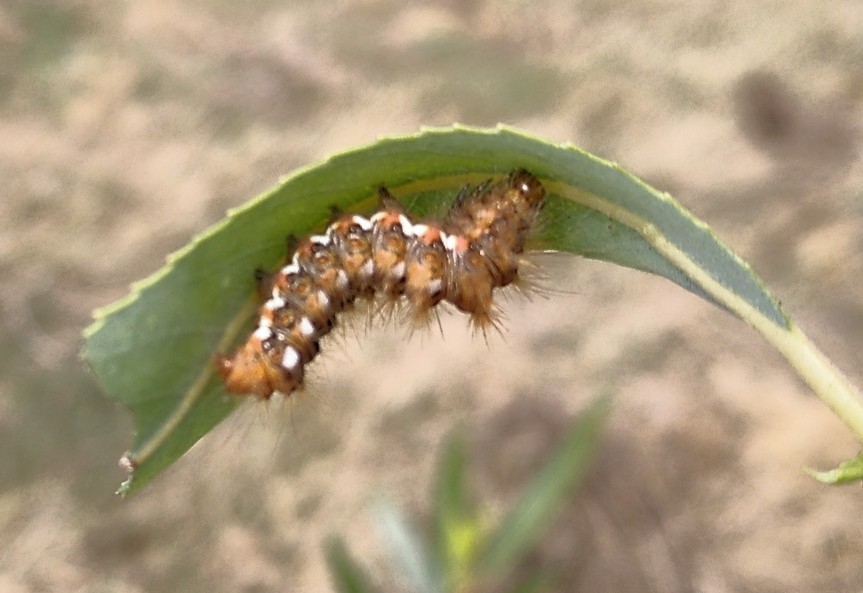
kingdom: Animalia
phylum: Arthropoda
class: Insecta
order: Lepidoptera
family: Noctuidae
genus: Acronicta
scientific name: Acronicta rumicis
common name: Knot grass
